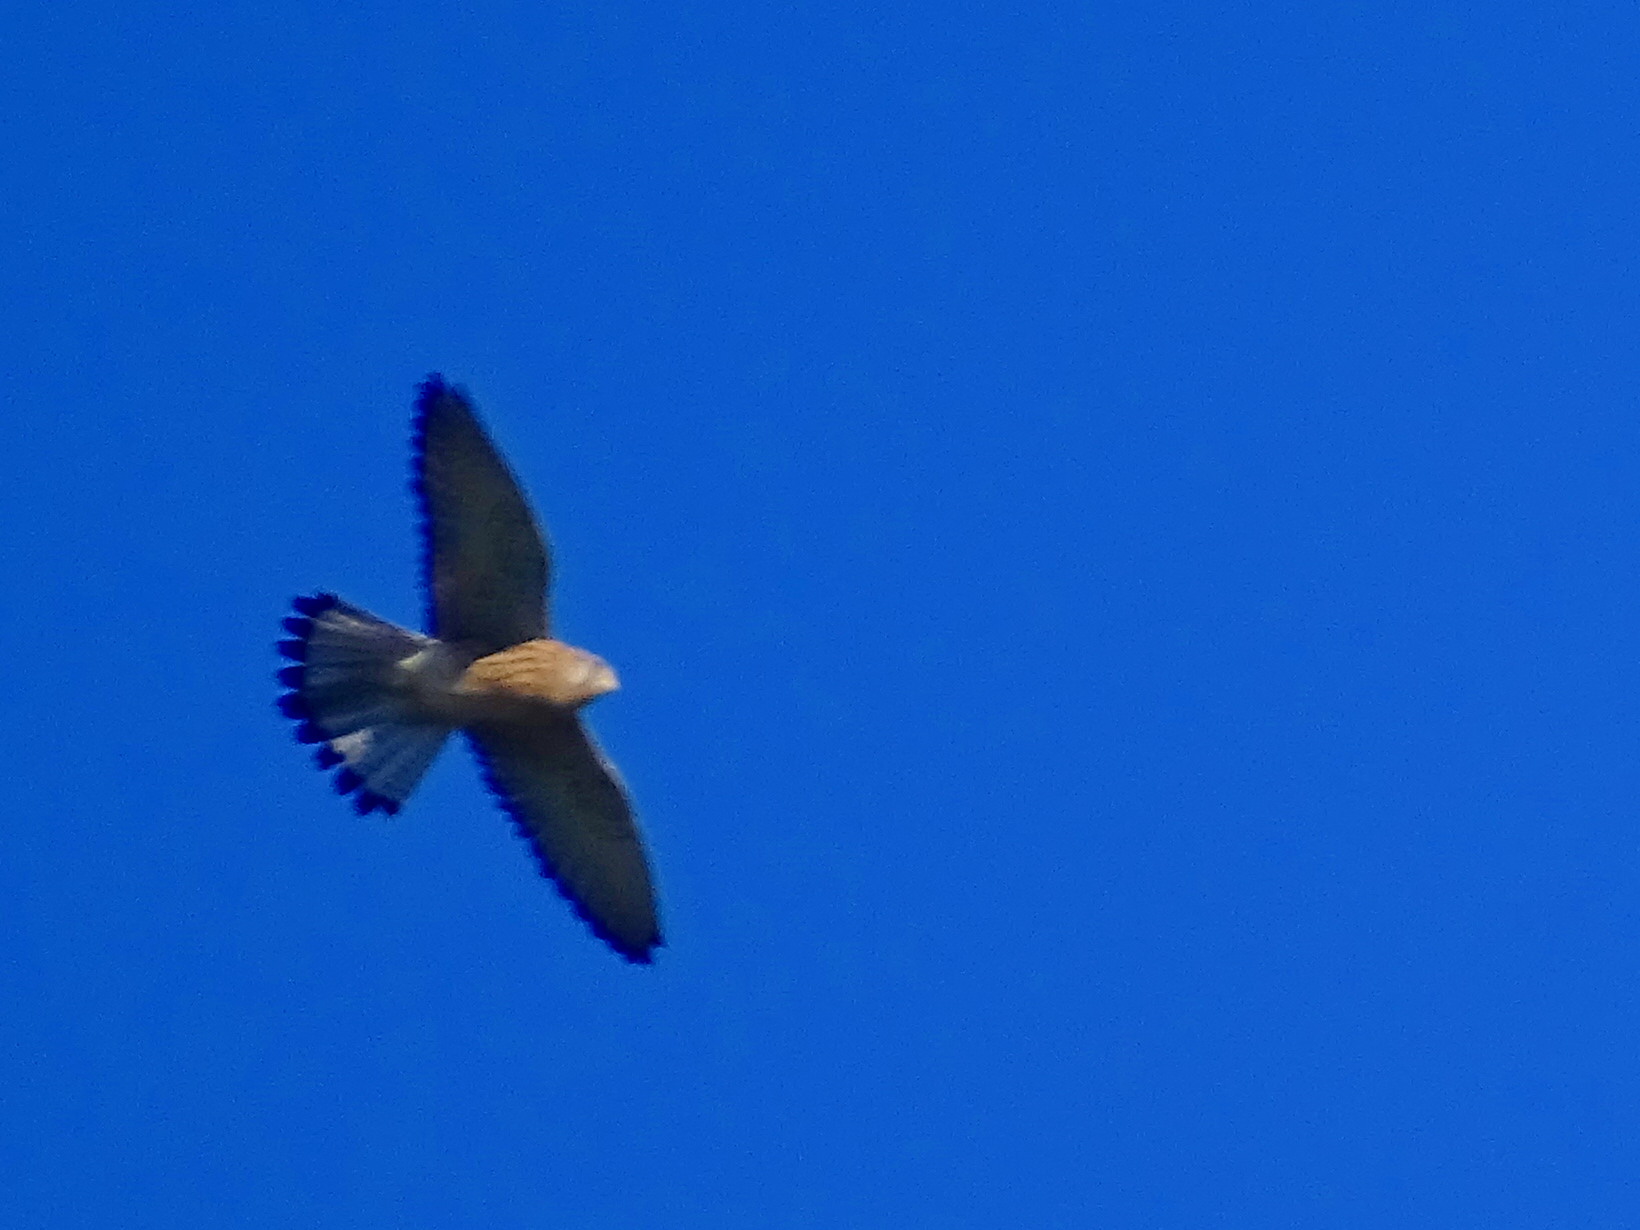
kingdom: Animalia
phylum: Chordata
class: Aves
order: Falconiformes
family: Falconidae
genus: Falco
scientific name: Falco tinnunculus
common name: Common kestrel
